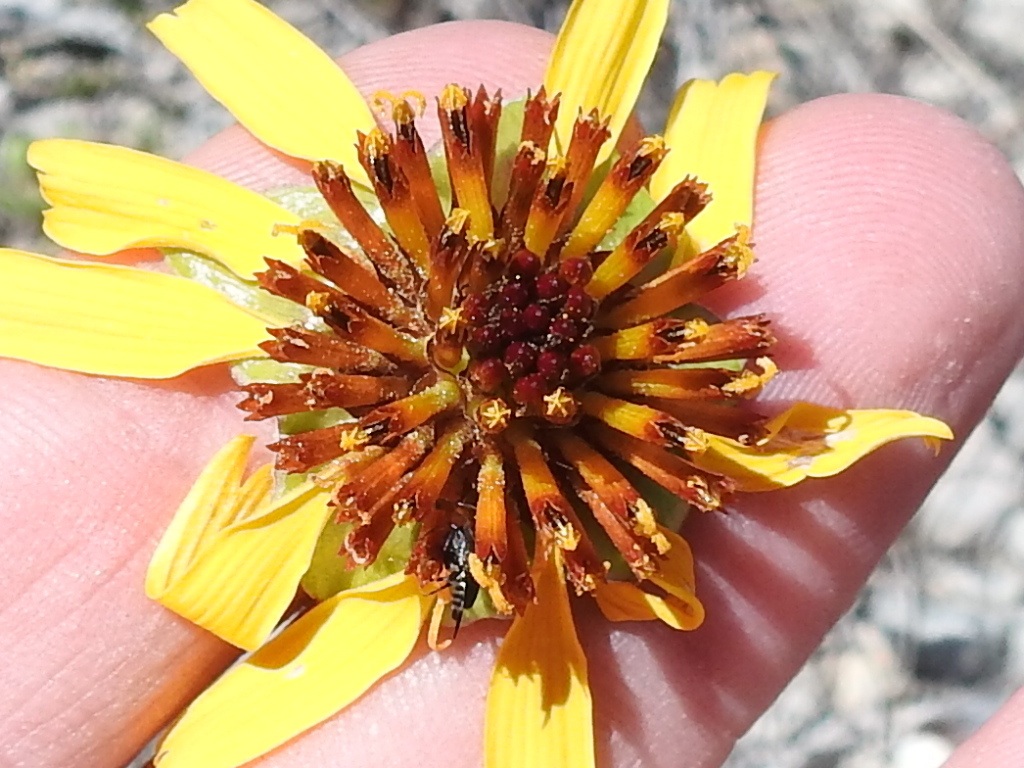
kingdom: Plantae
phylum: Tracheophyta
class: Magnoliopsida
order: Asterales
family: Asteraceae
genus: Tetragonotheca
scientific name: Tetragonotheca texana
